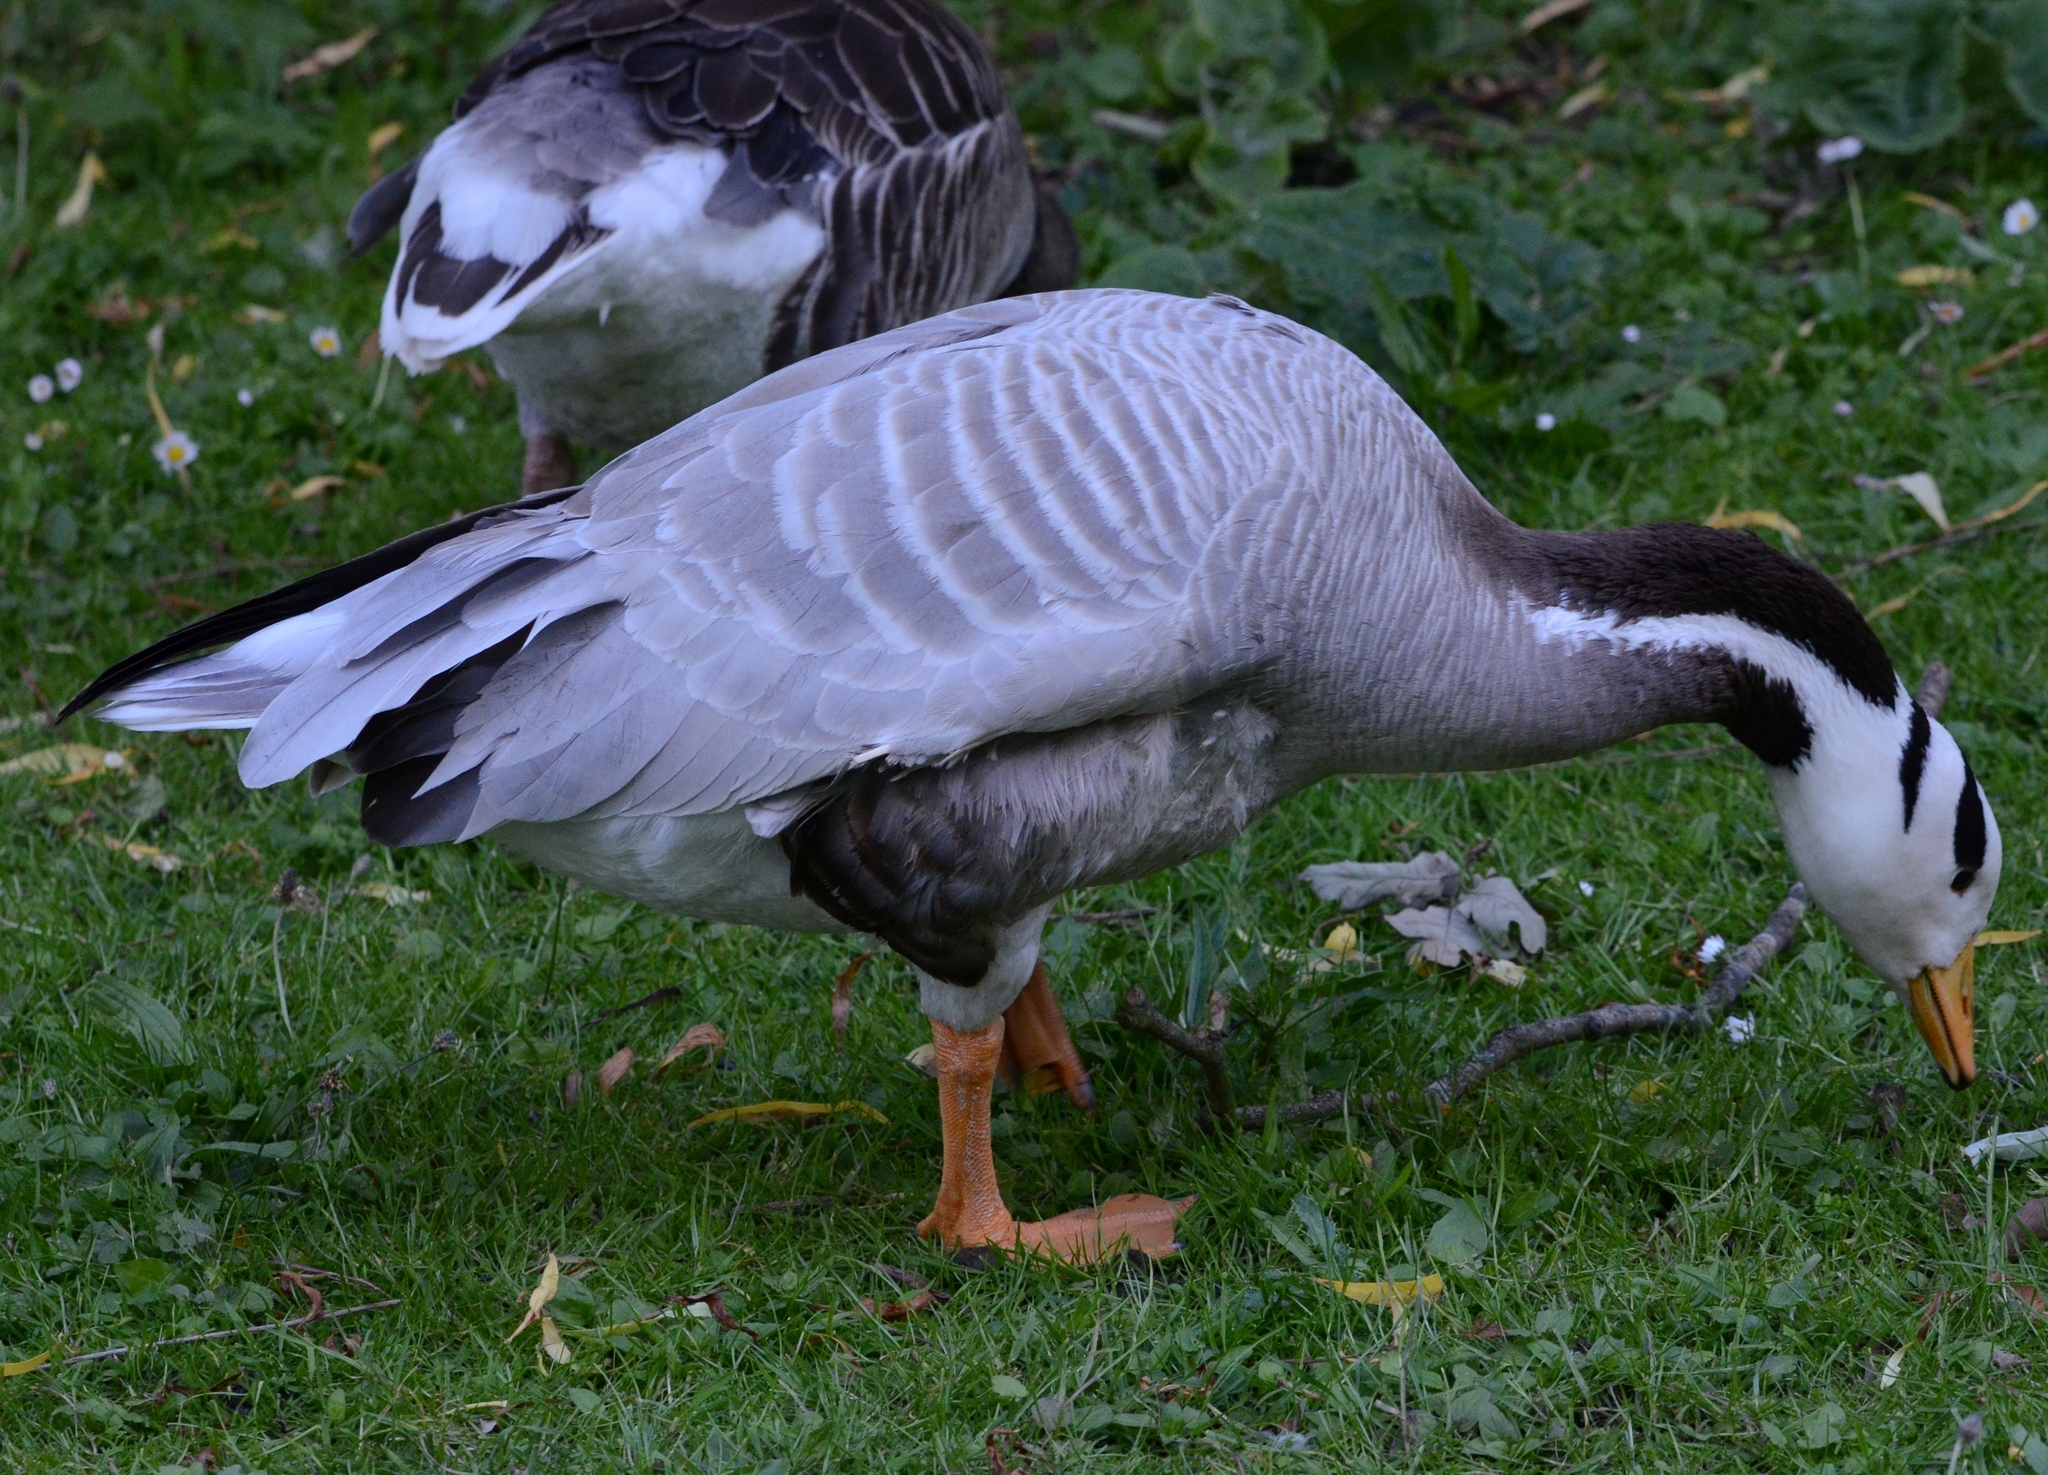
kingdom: Animalia
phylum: Chordata
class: Aves
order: Anseriformes
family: Anatidae
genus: Anser
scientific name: Anser indicus
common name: Bar-headed goose
